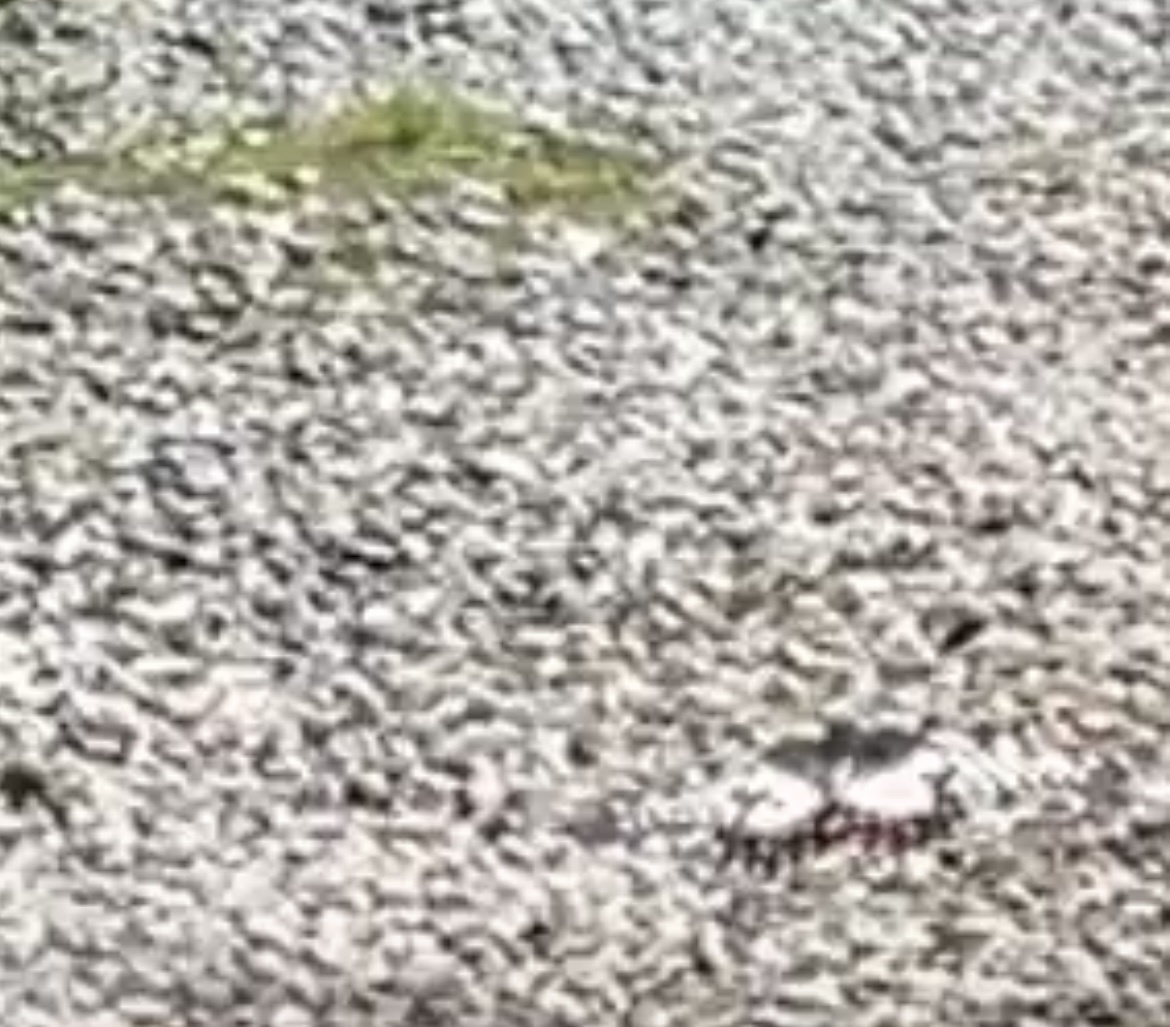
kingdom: Animalia
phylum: Arthropoda
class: Insecta
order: Lepidoptera
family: Papilionidae
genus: Papilio
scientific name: Papilio anactus
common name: Dingy swallowtail
